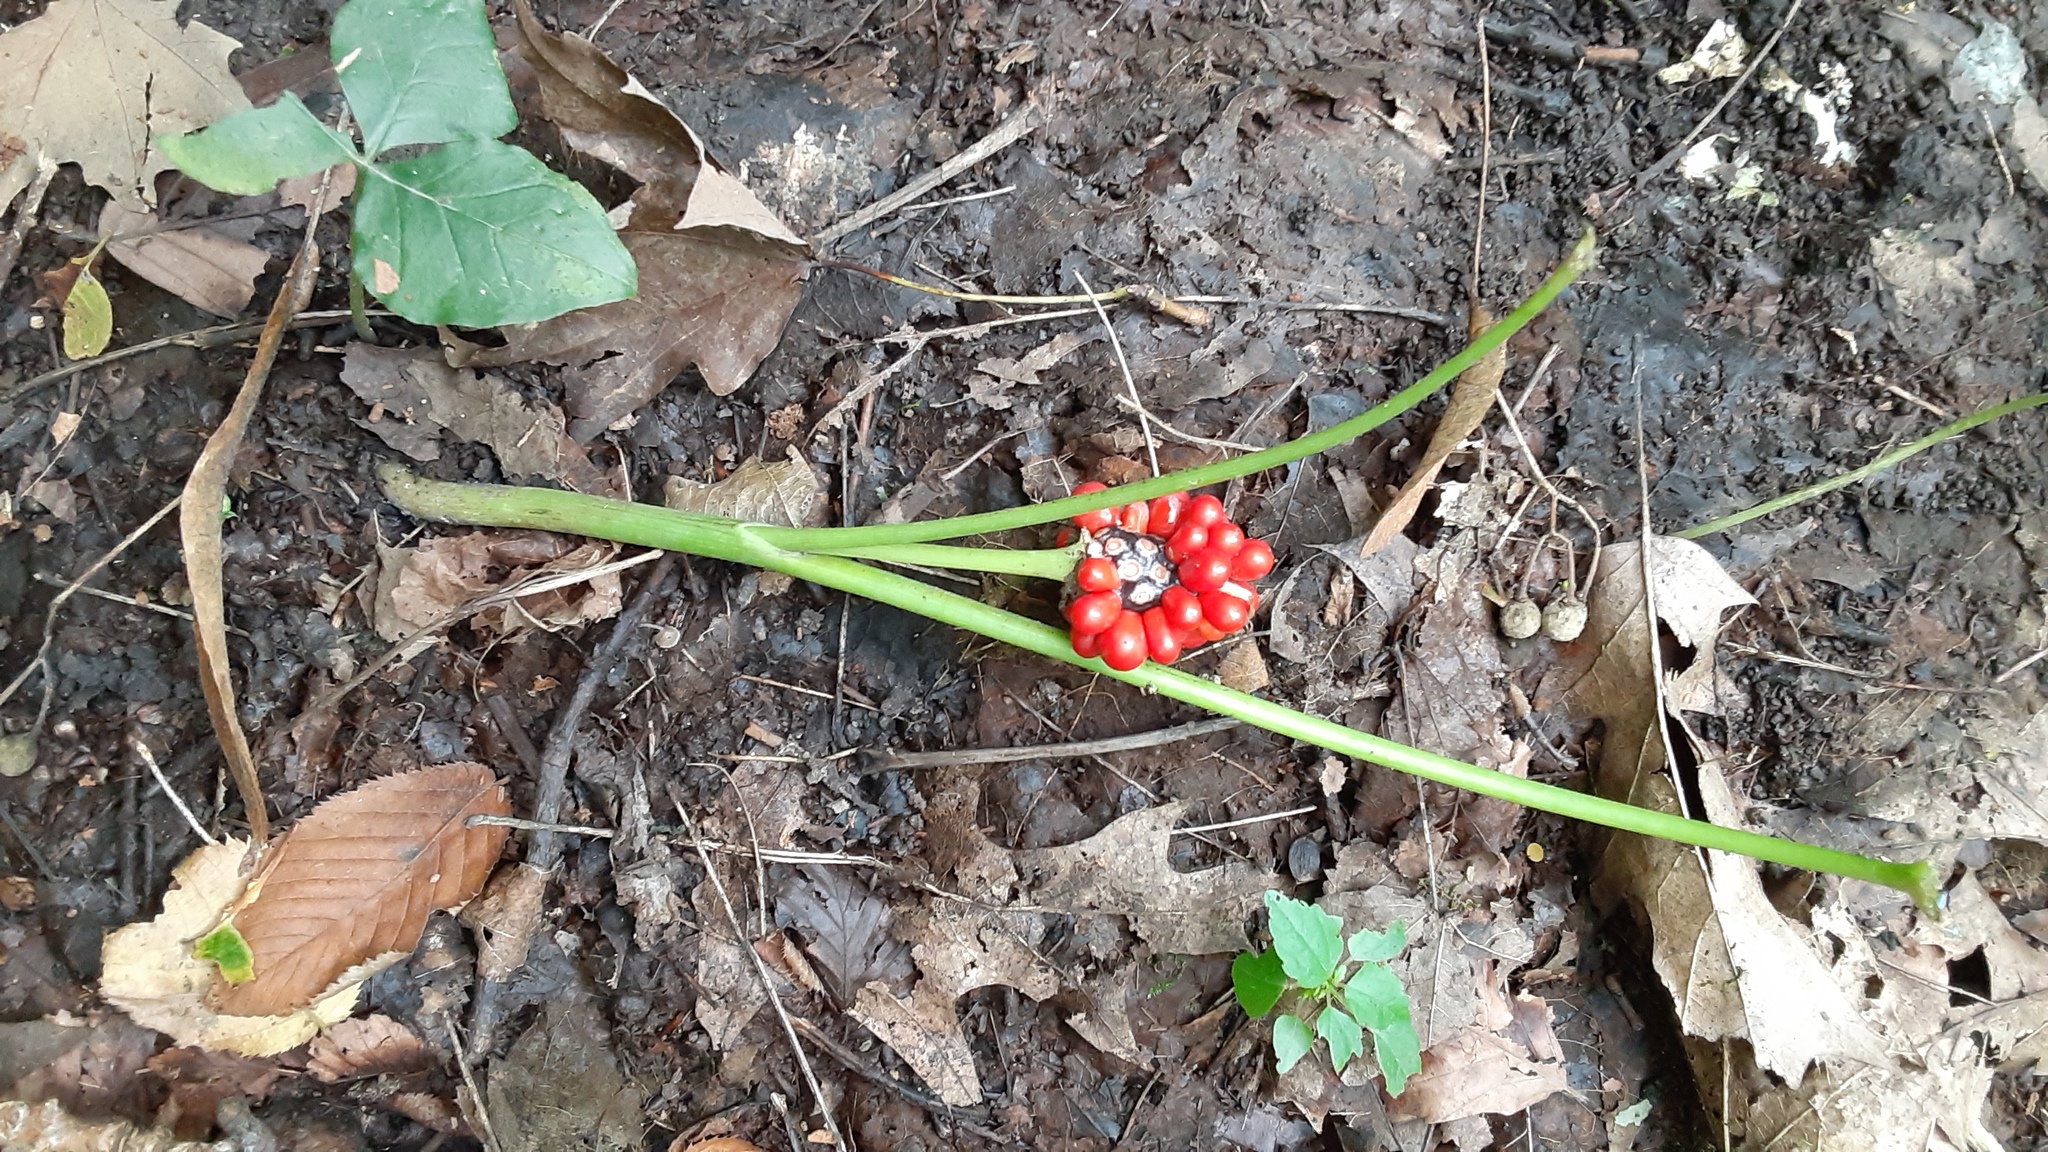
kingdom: Plantae
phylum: Tracheophyta
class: Liliopsida
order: Alismatales
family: Araceae
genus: Arisaema
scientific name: Arisaema triphyllum
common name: Jack-in-the-pulpit
